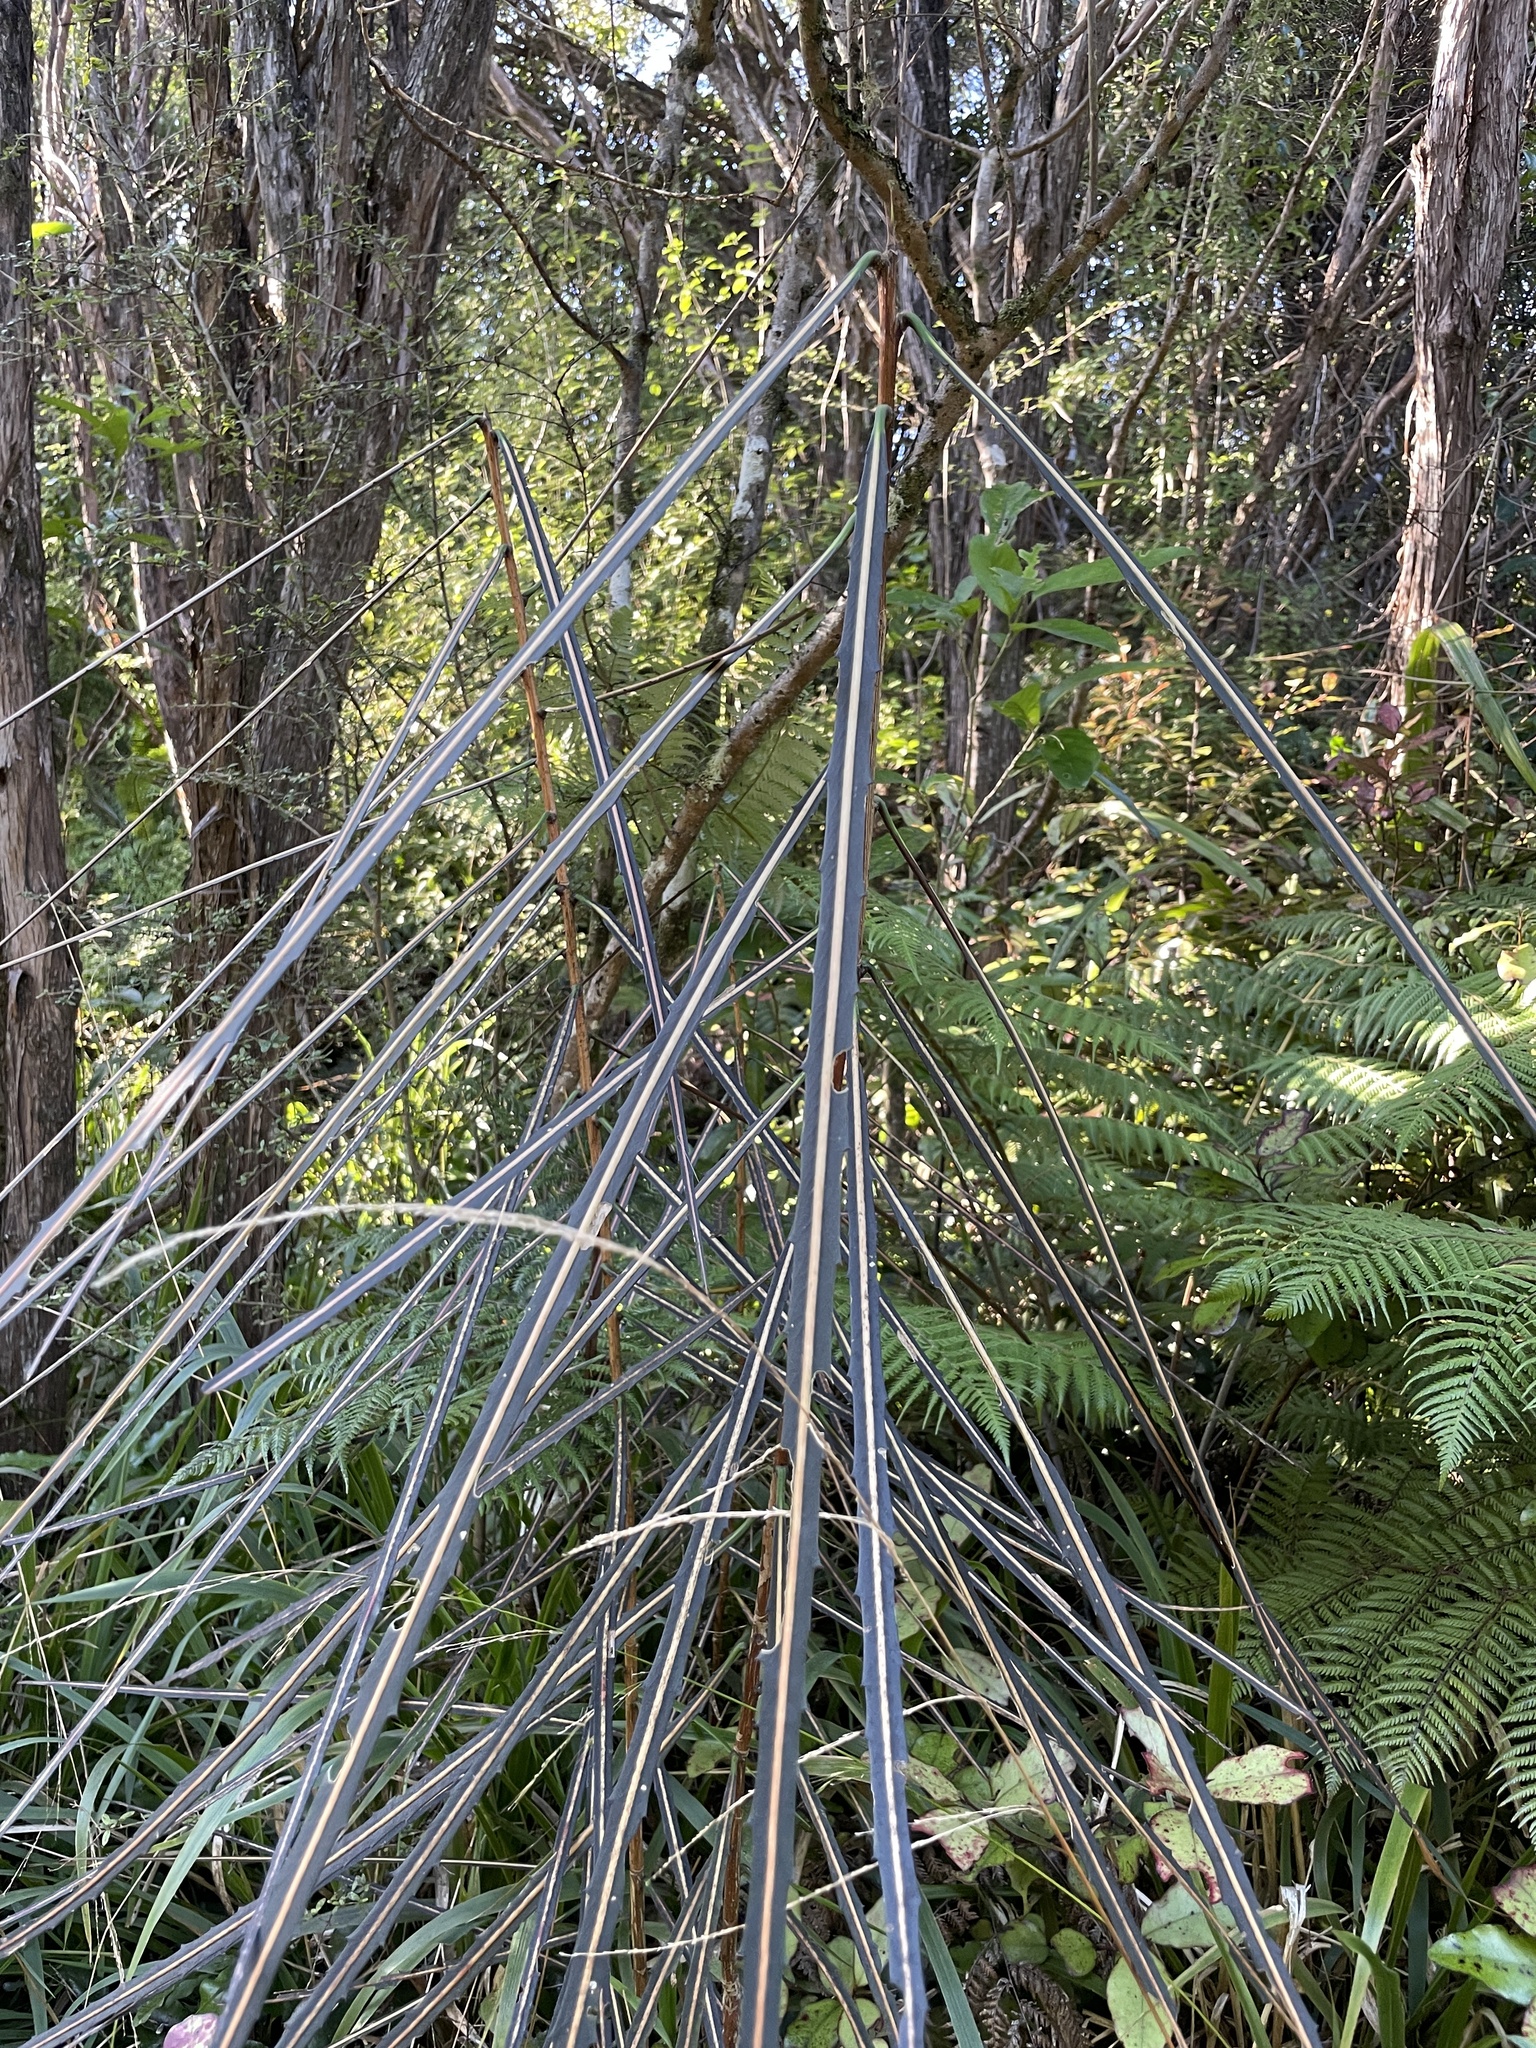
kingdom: Plantae
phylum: Tracheophyta
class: Magnoliopsida
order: Apiales
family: Araliaceae
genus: Pseudopanax
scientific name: Pseudopanax crassifolius
